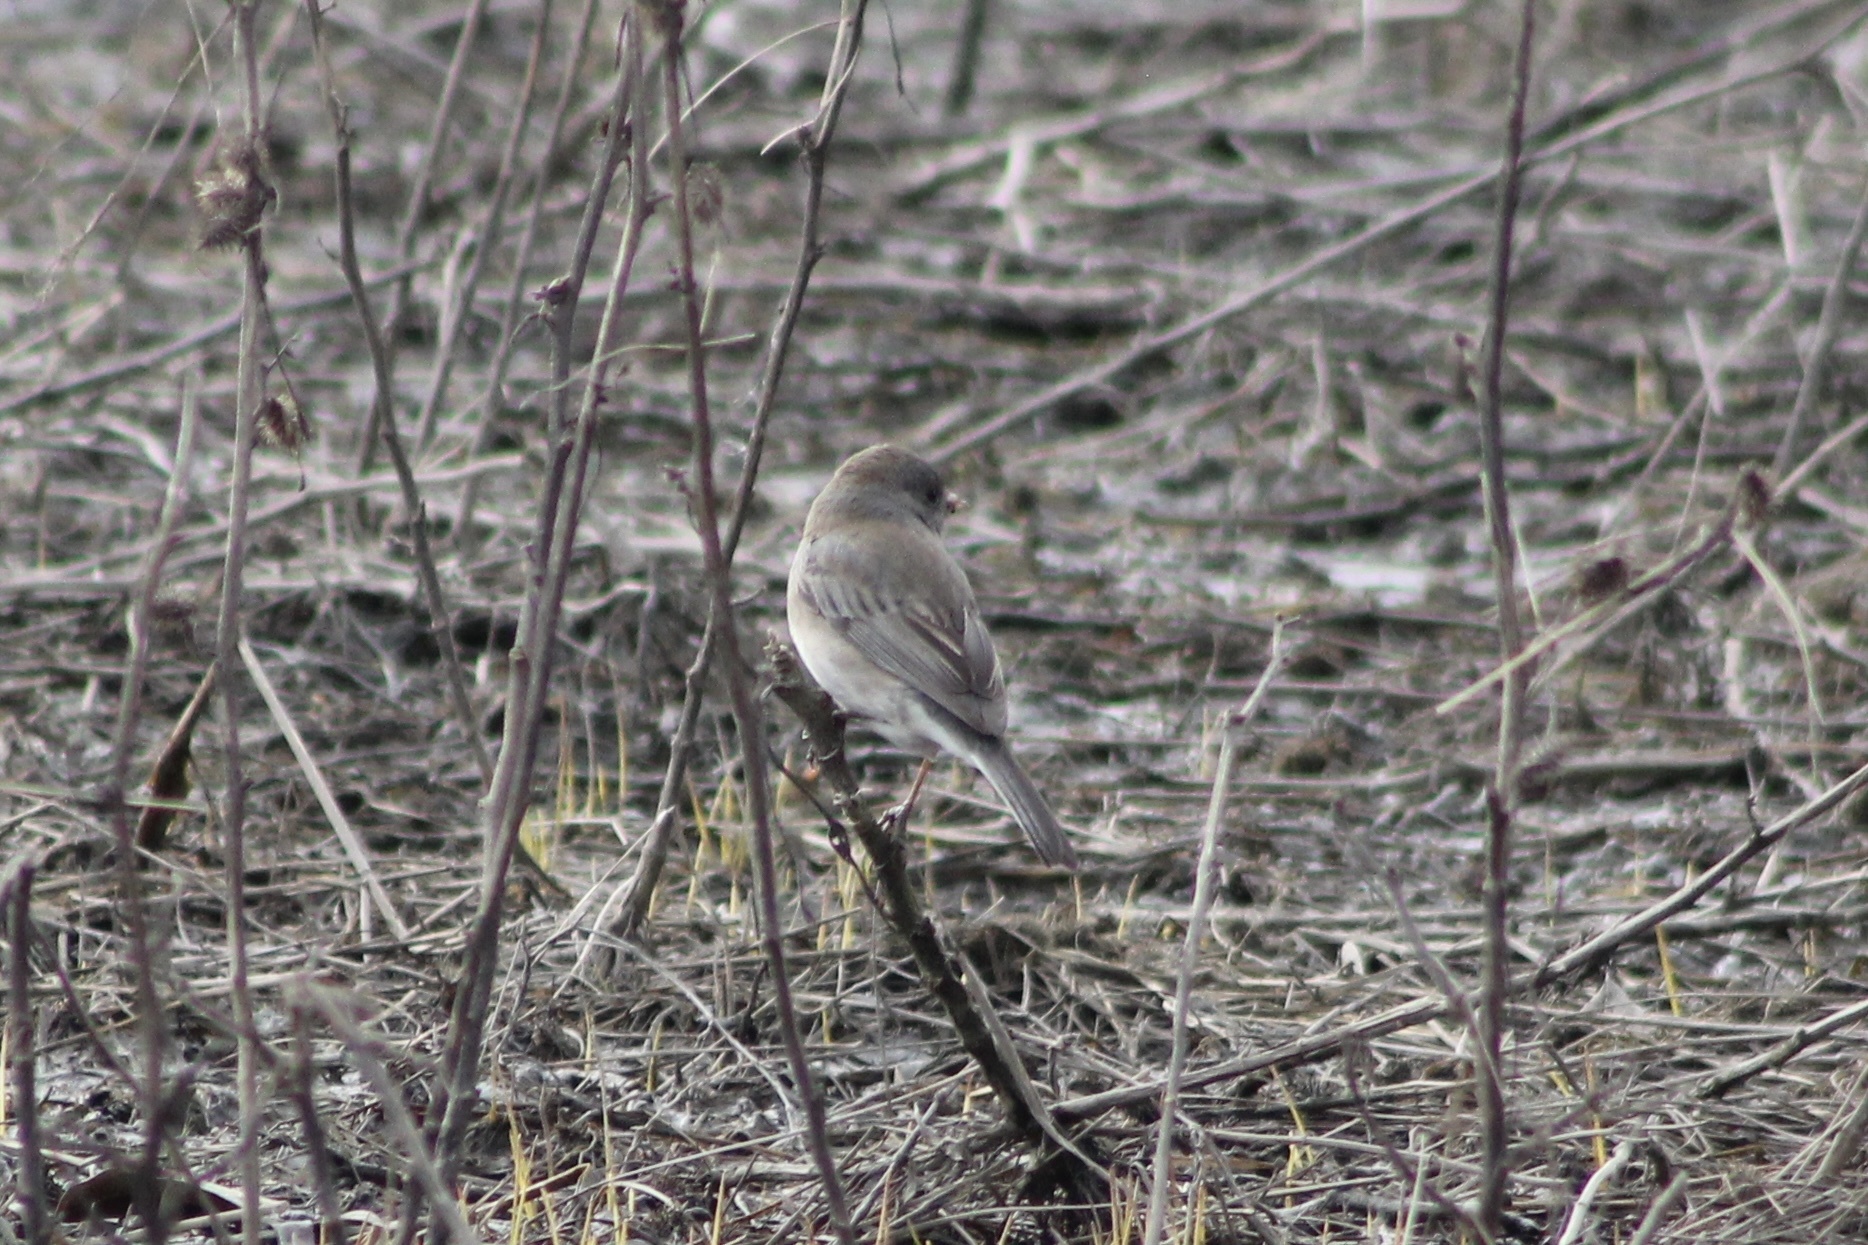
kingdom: Animalia
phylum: Chordata
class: Aves
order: Passeriformes
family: Passerellidae
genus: Junco
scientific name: Junco hyemalis
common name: Dark-eyed junco
